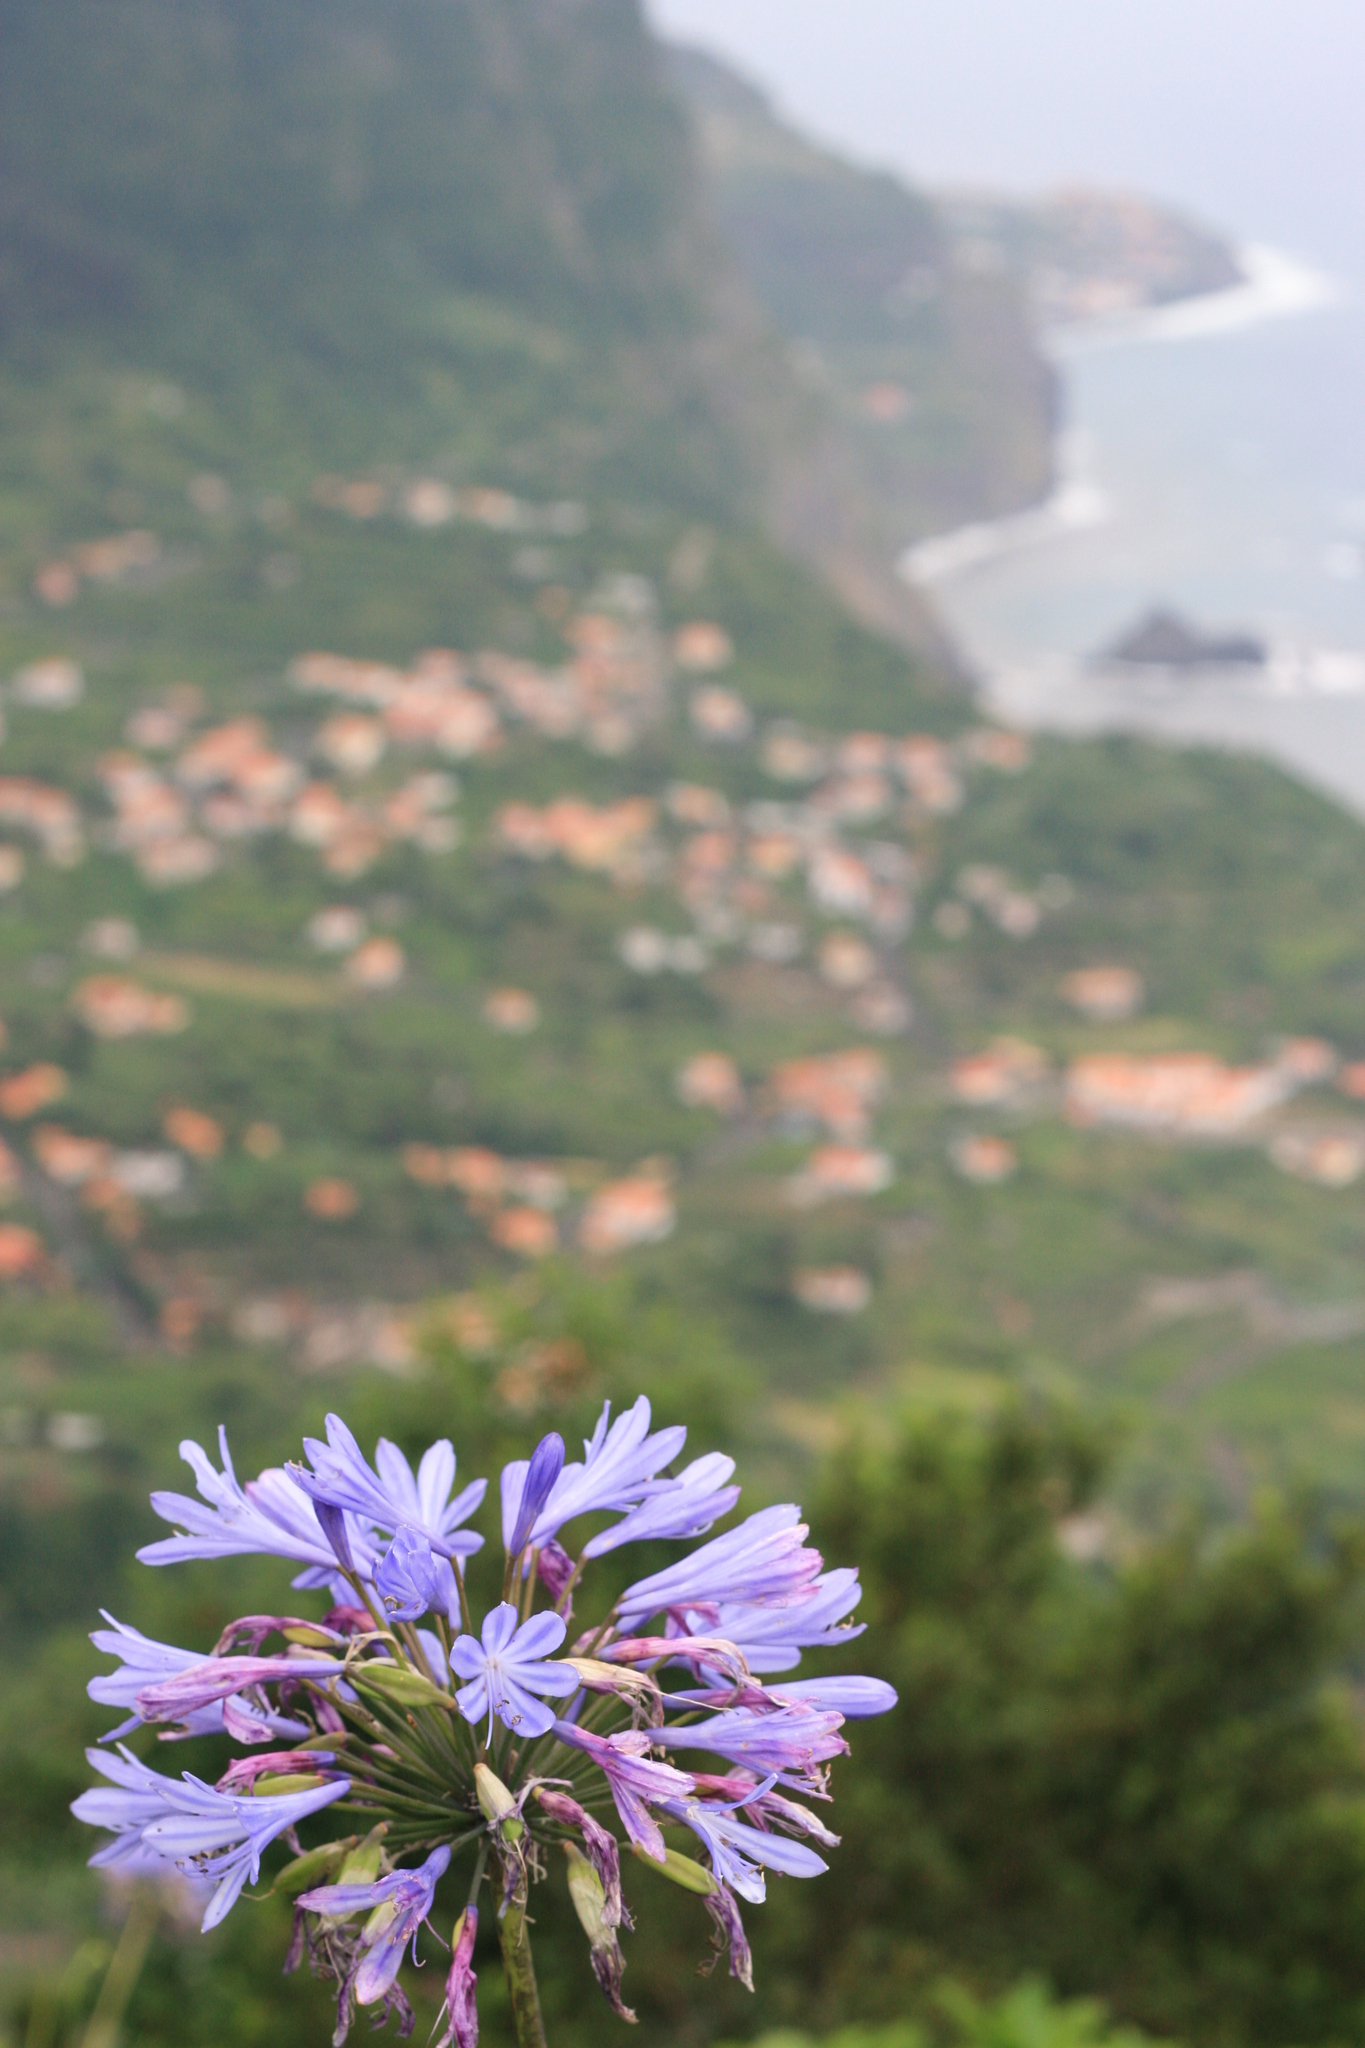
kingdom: Plantae
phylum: Tracheophyta
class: Liliopsida
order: Asparagales
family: Amaryllidaceae
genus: Agapanthus
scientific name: Agapanthus praecox
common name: African-lily
